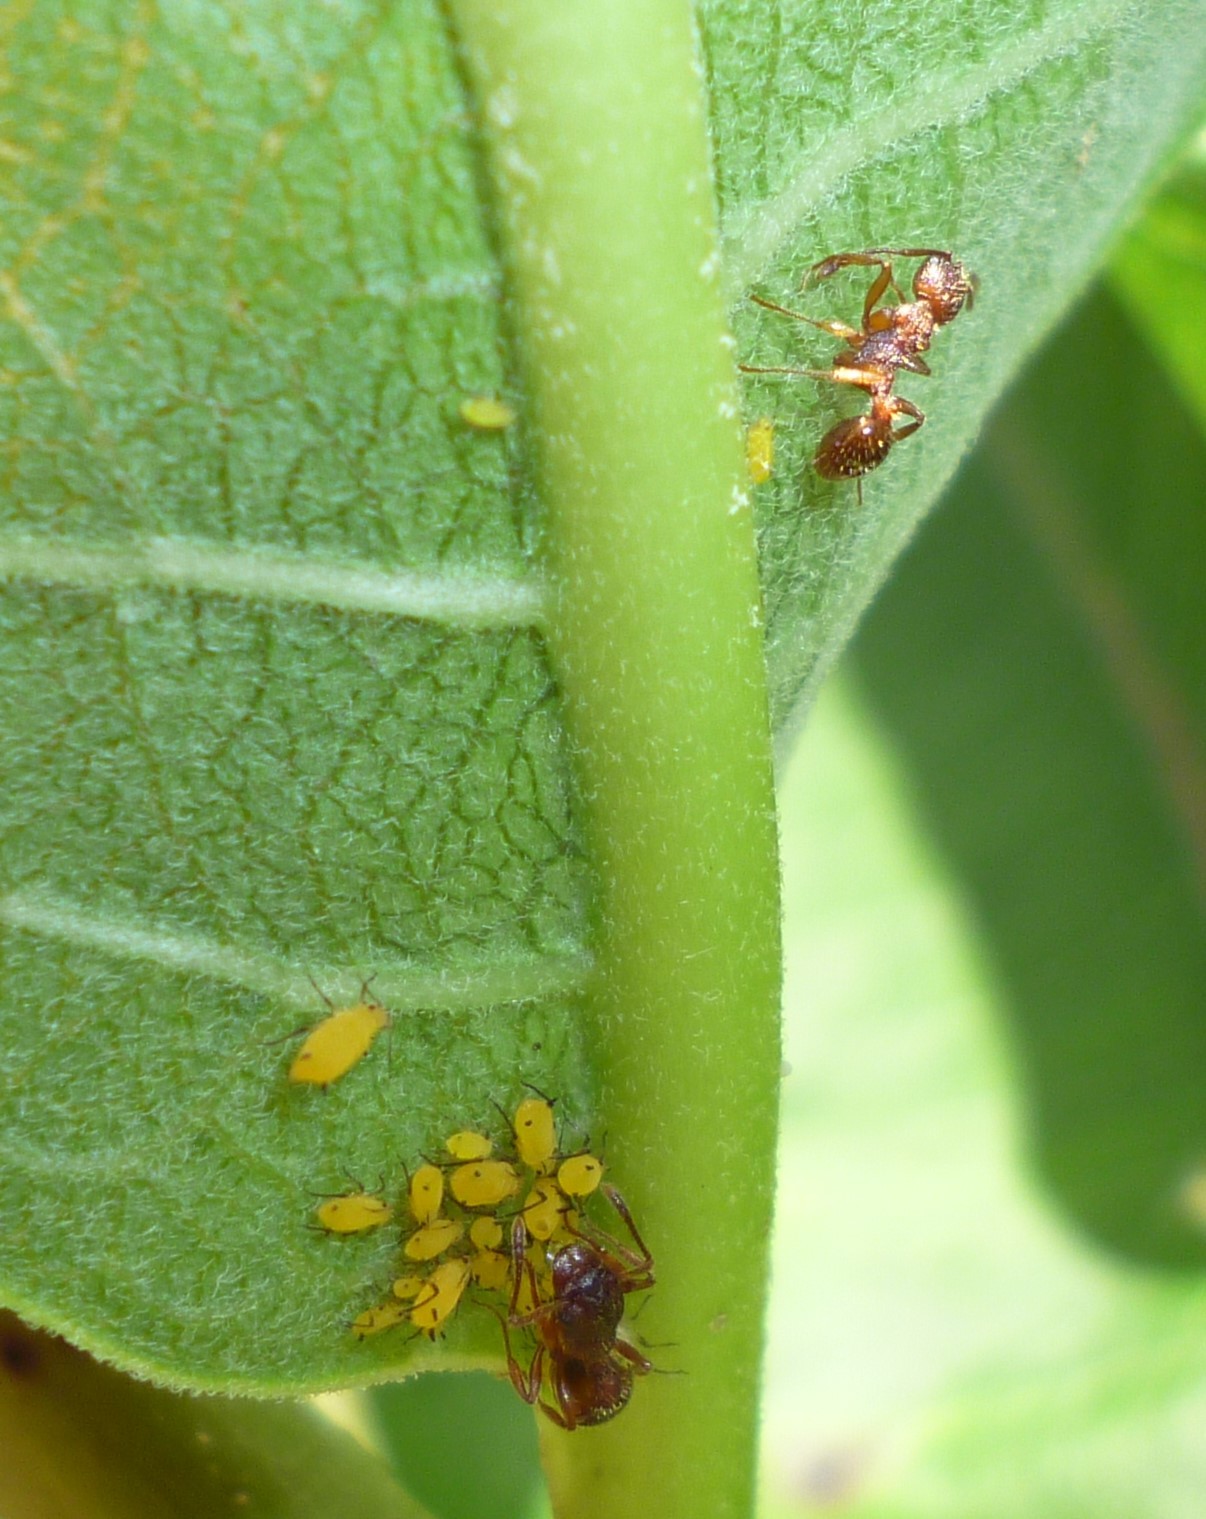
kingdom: Animalia
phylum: Arthropoda
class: Insecta
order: Hemiptera
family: Aphididae
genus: Aphis
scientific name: Aphis nerii
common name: Oleander aphid
